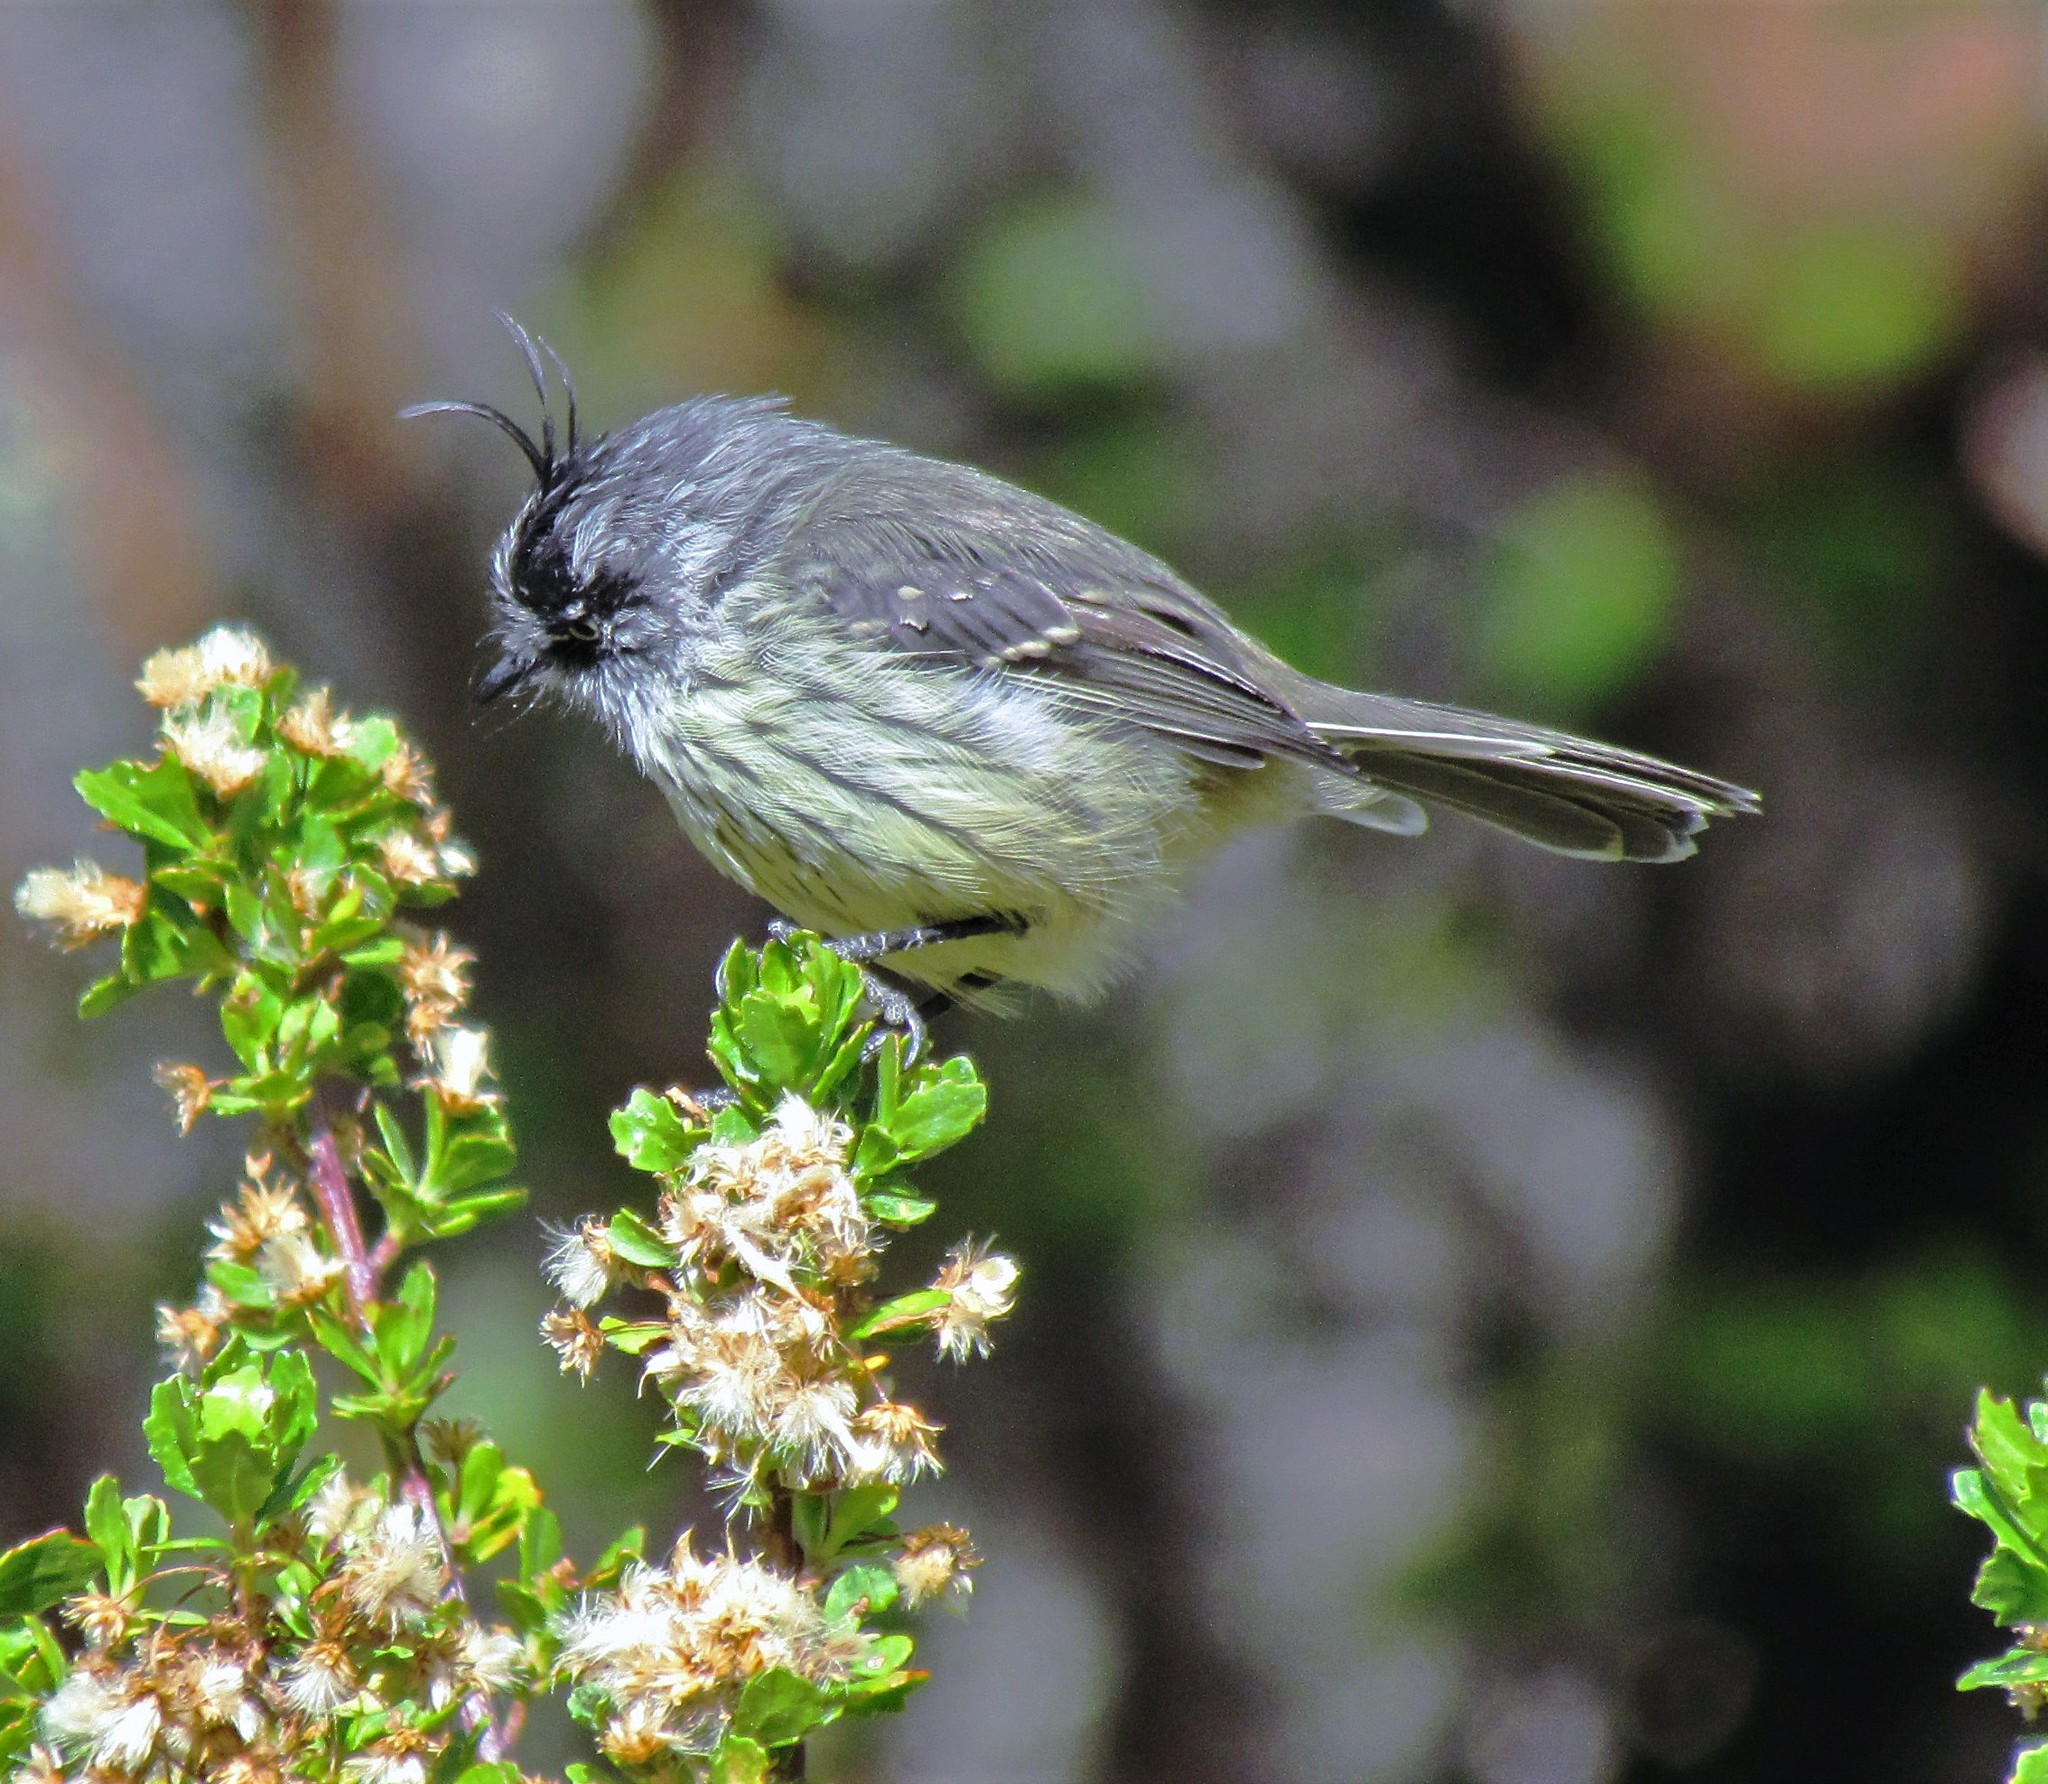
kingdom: Animalia
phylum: Chordata
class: Aves
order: Passeriformes
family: Tyrannidae
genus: Anairetes
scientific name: Anairetes parulus
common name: Tufted tit-tyrant
